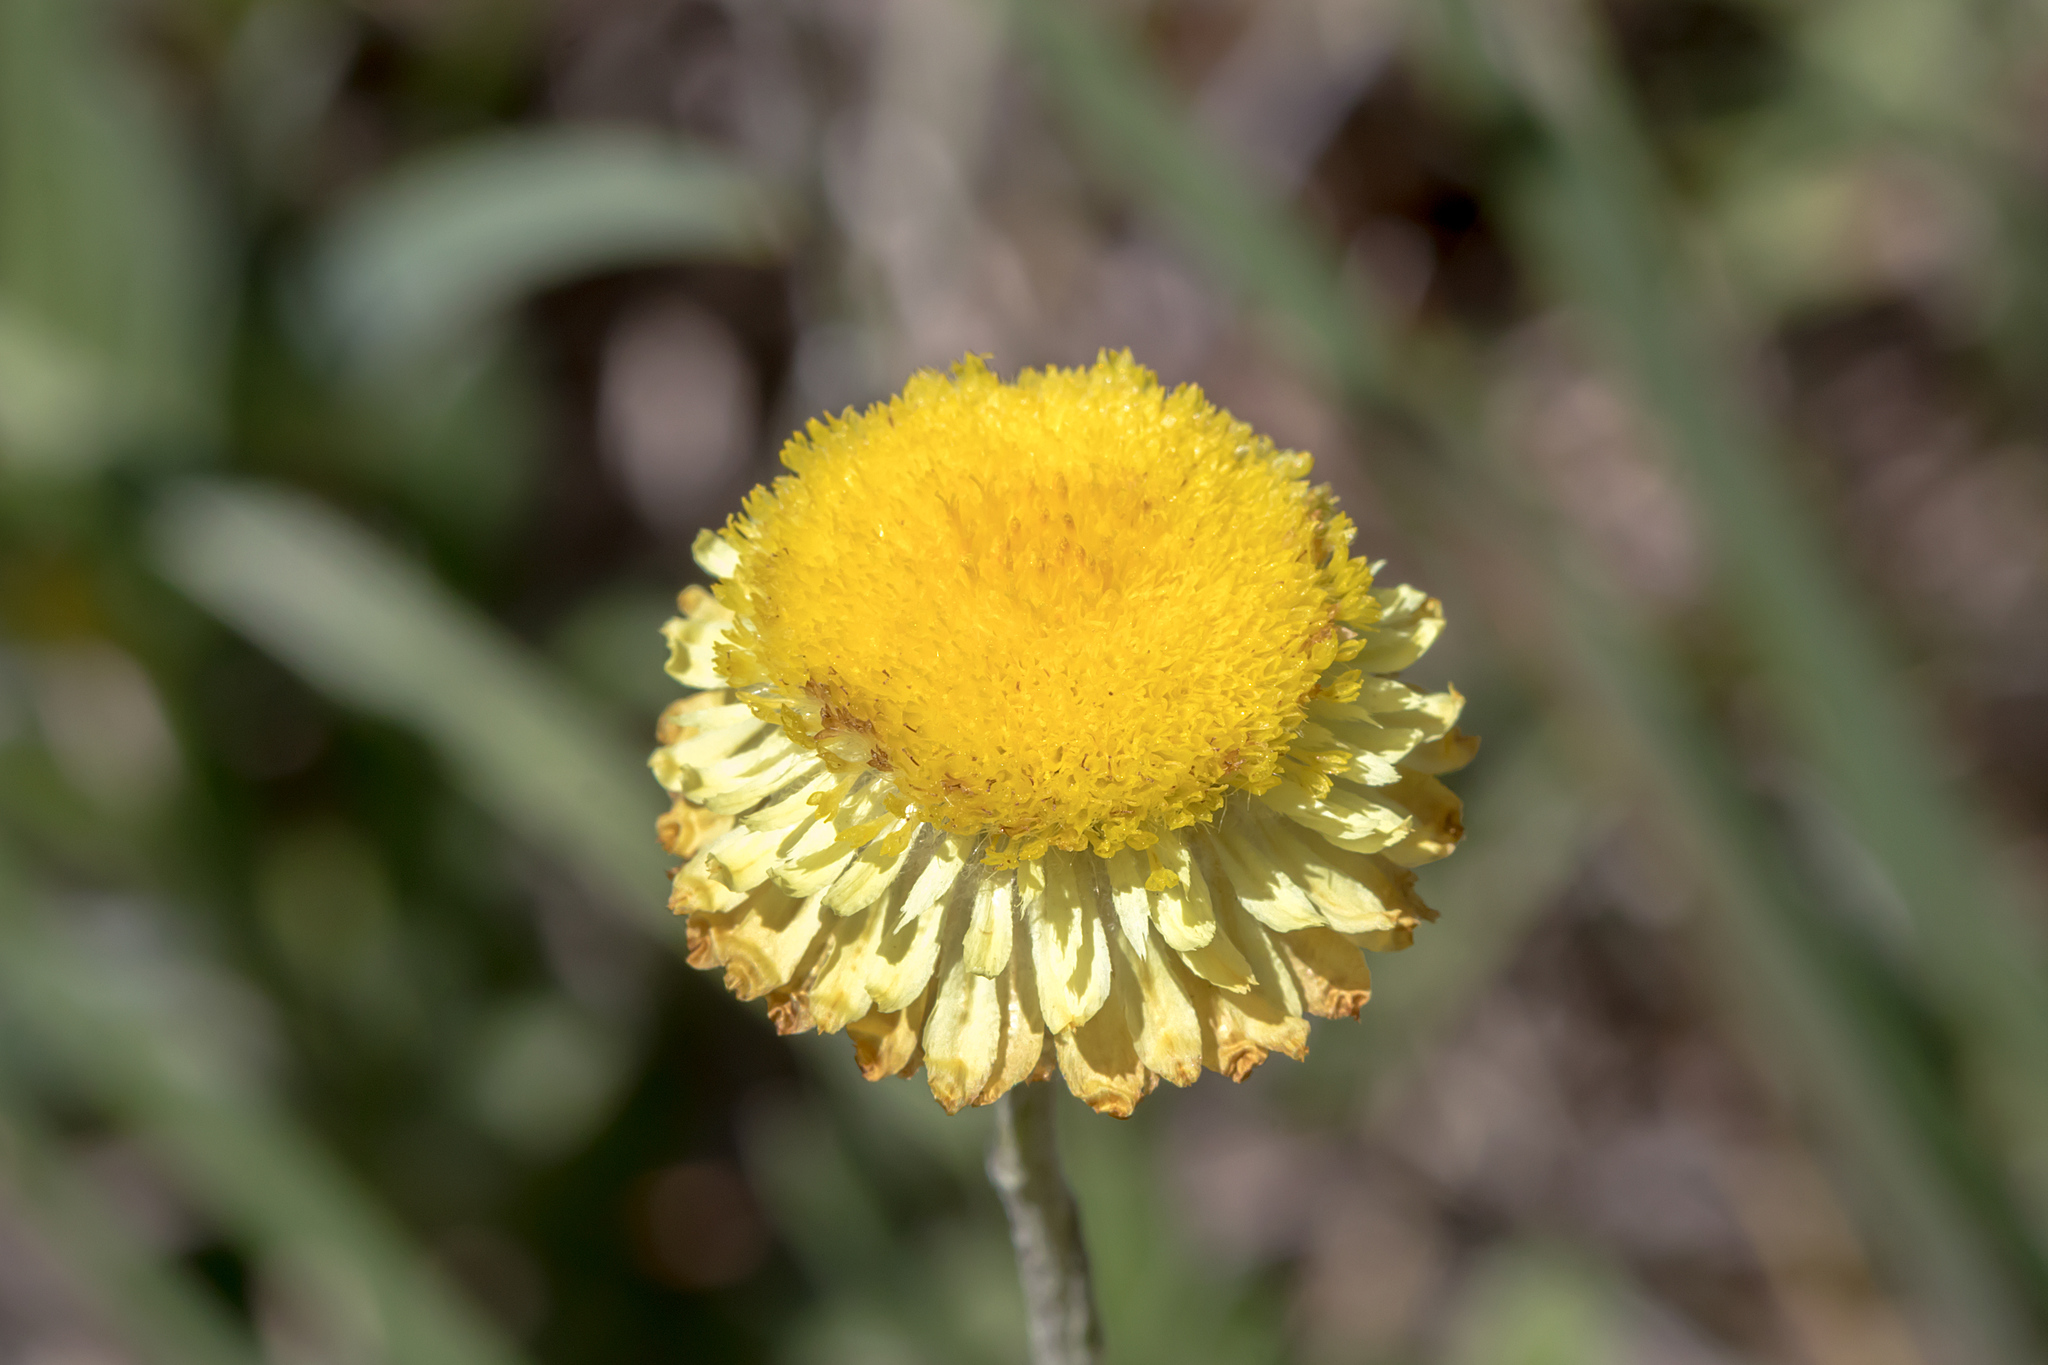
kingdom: Plantae
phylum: Tracheophyta
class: Magnoliopsida
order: Asterales
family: Asteraceae
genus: Coronidium
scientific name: Coronidium scorpioides
